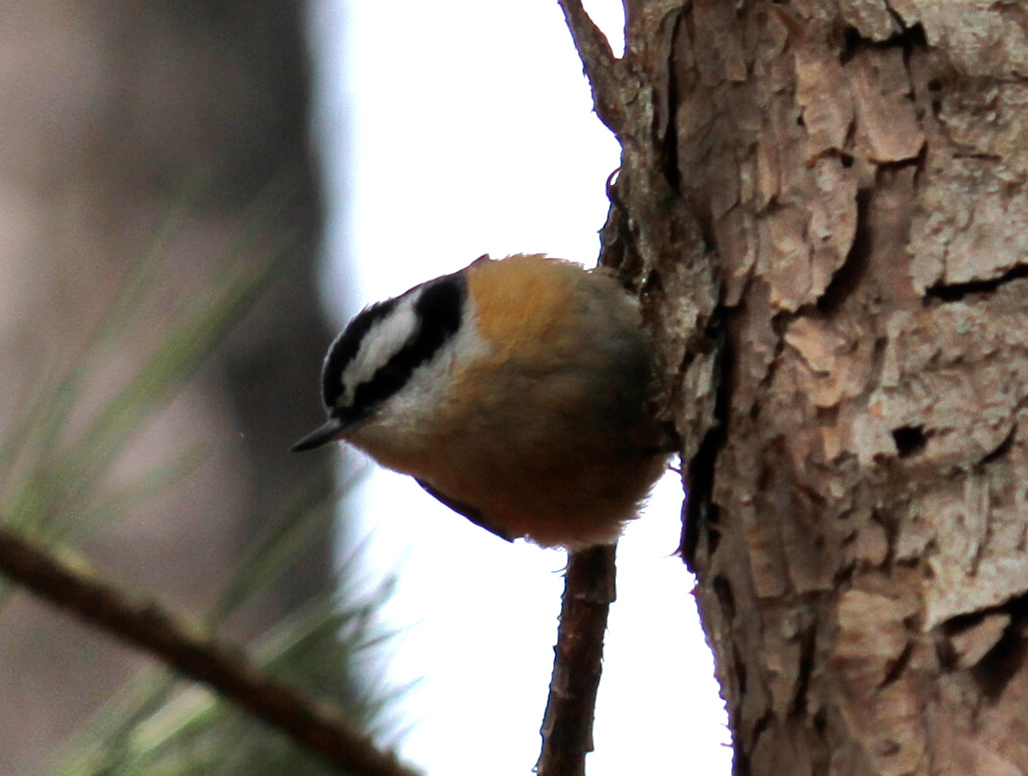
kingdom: Animalia
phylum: Chordata
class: Aves
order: Passeriformes
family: Sittidae
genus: Sitta
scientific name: Sitta canadensis
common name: Red-breasted nuthatch
